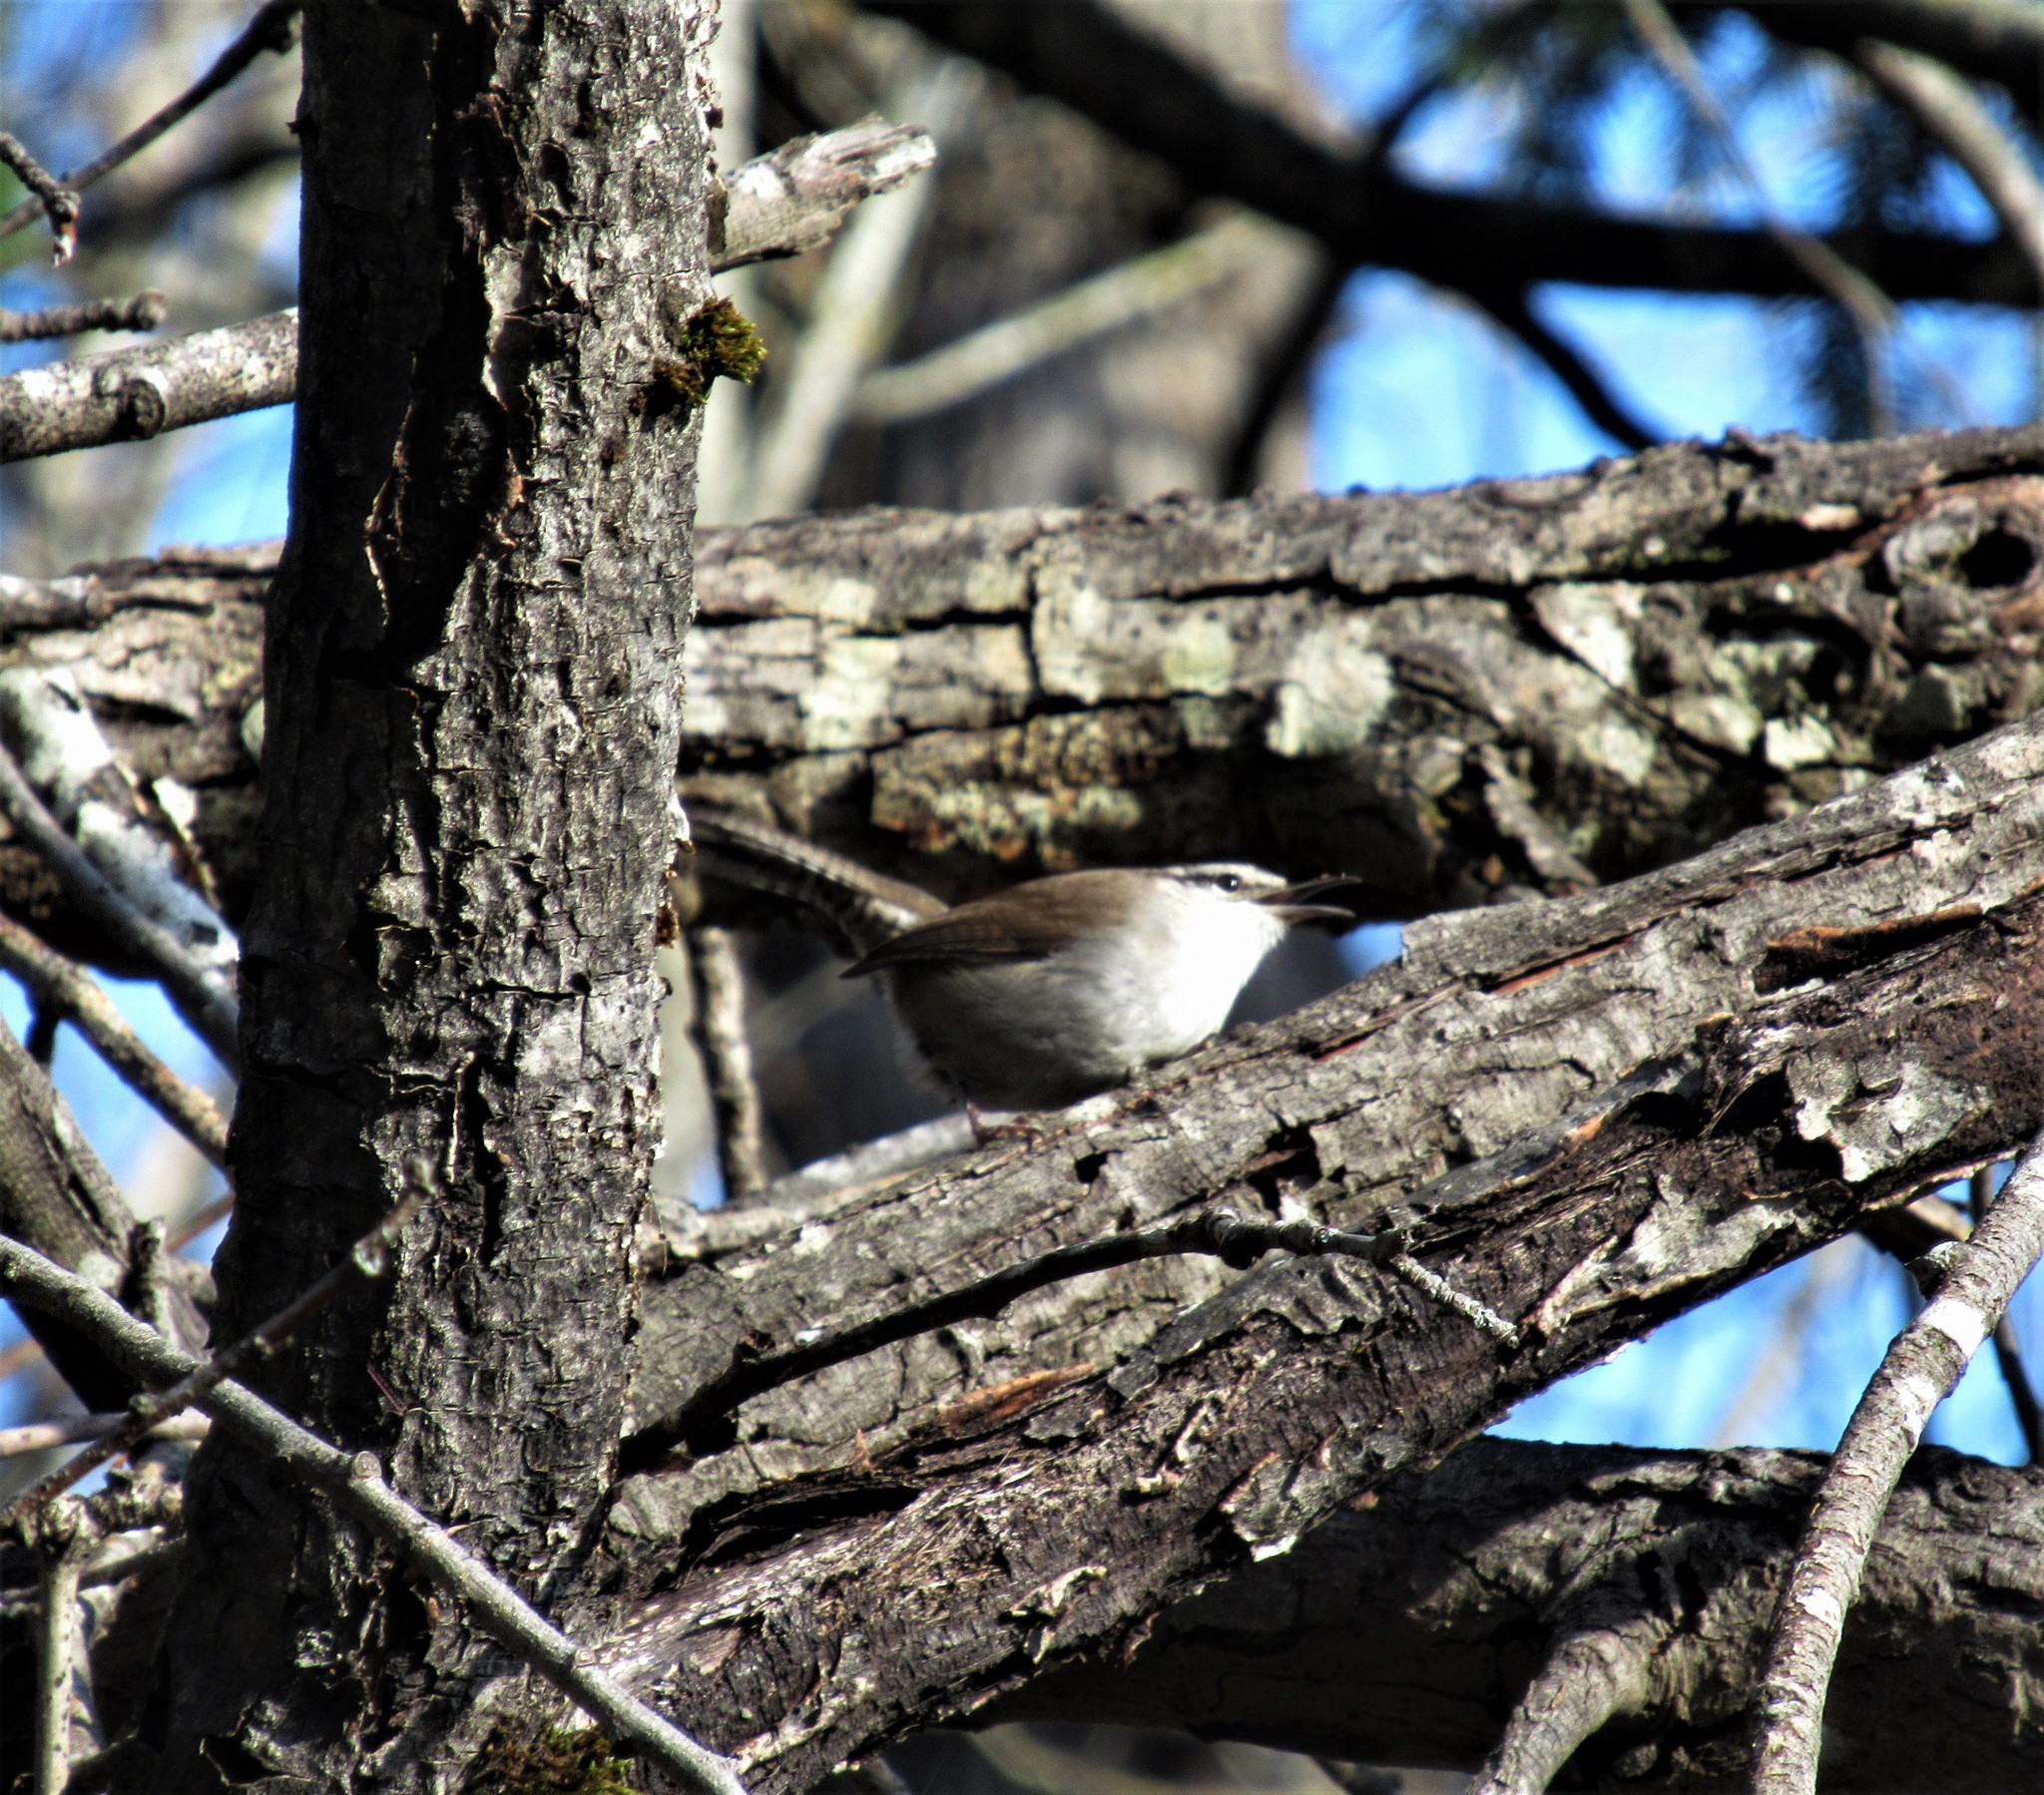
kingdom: Animalia
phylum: Chordata
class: Aves
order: Passeriformes
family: Troglodytidae
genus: Thryomanes
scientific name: Thryomanes bewickii
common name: Bewick's wren
